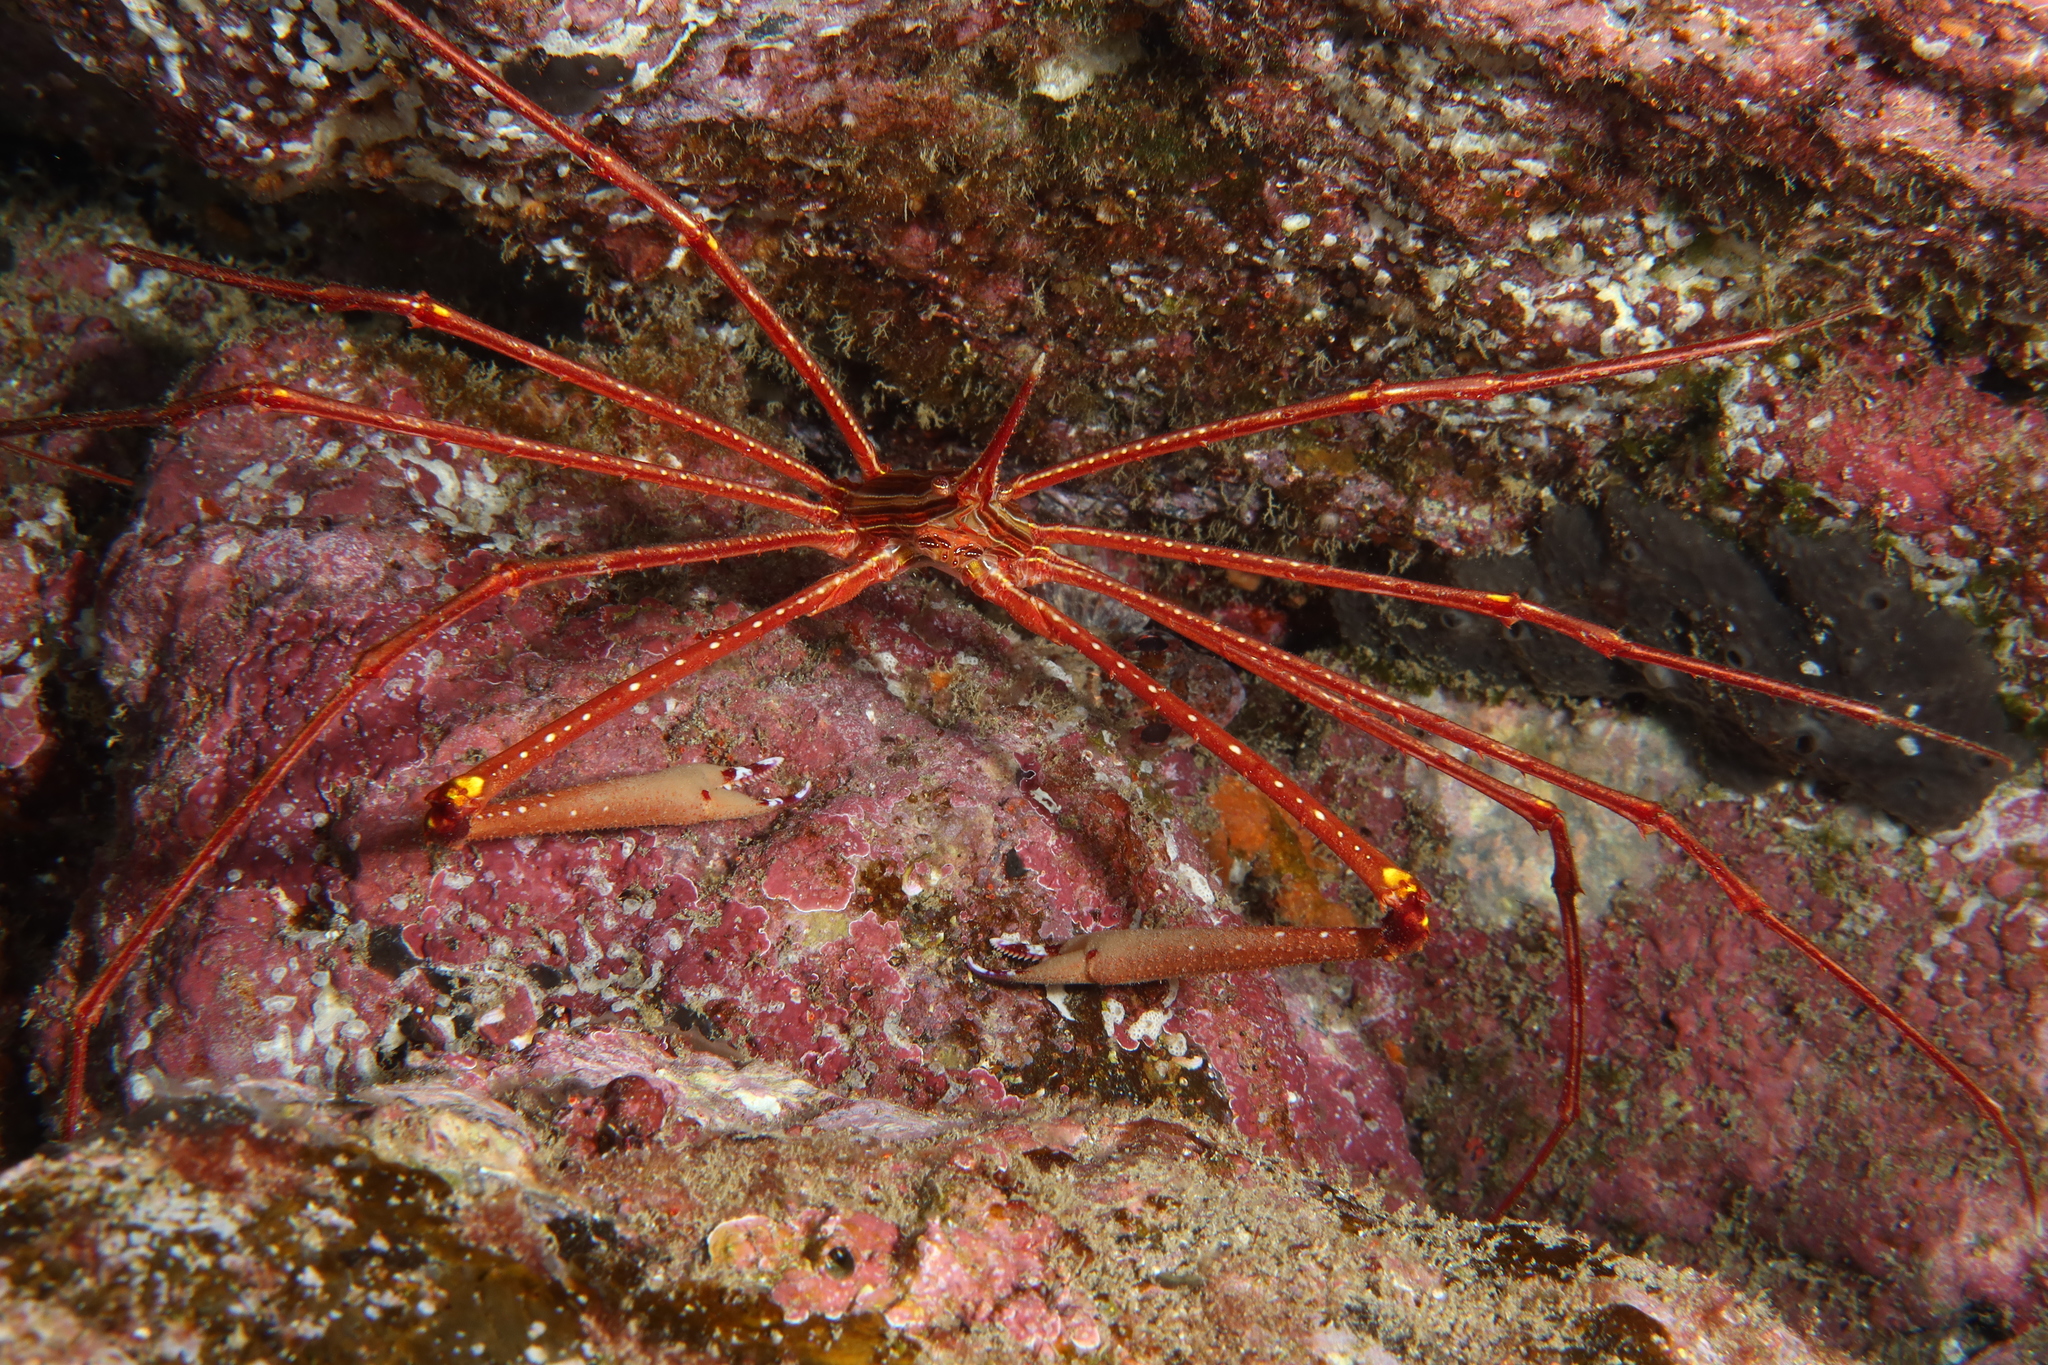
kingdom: Animalia
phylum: Arthropoda
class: Malacostraca
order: Decapoda
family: Inachoididae
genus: Stenorhynchus
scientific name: Stenorhynchus lanceolatus
